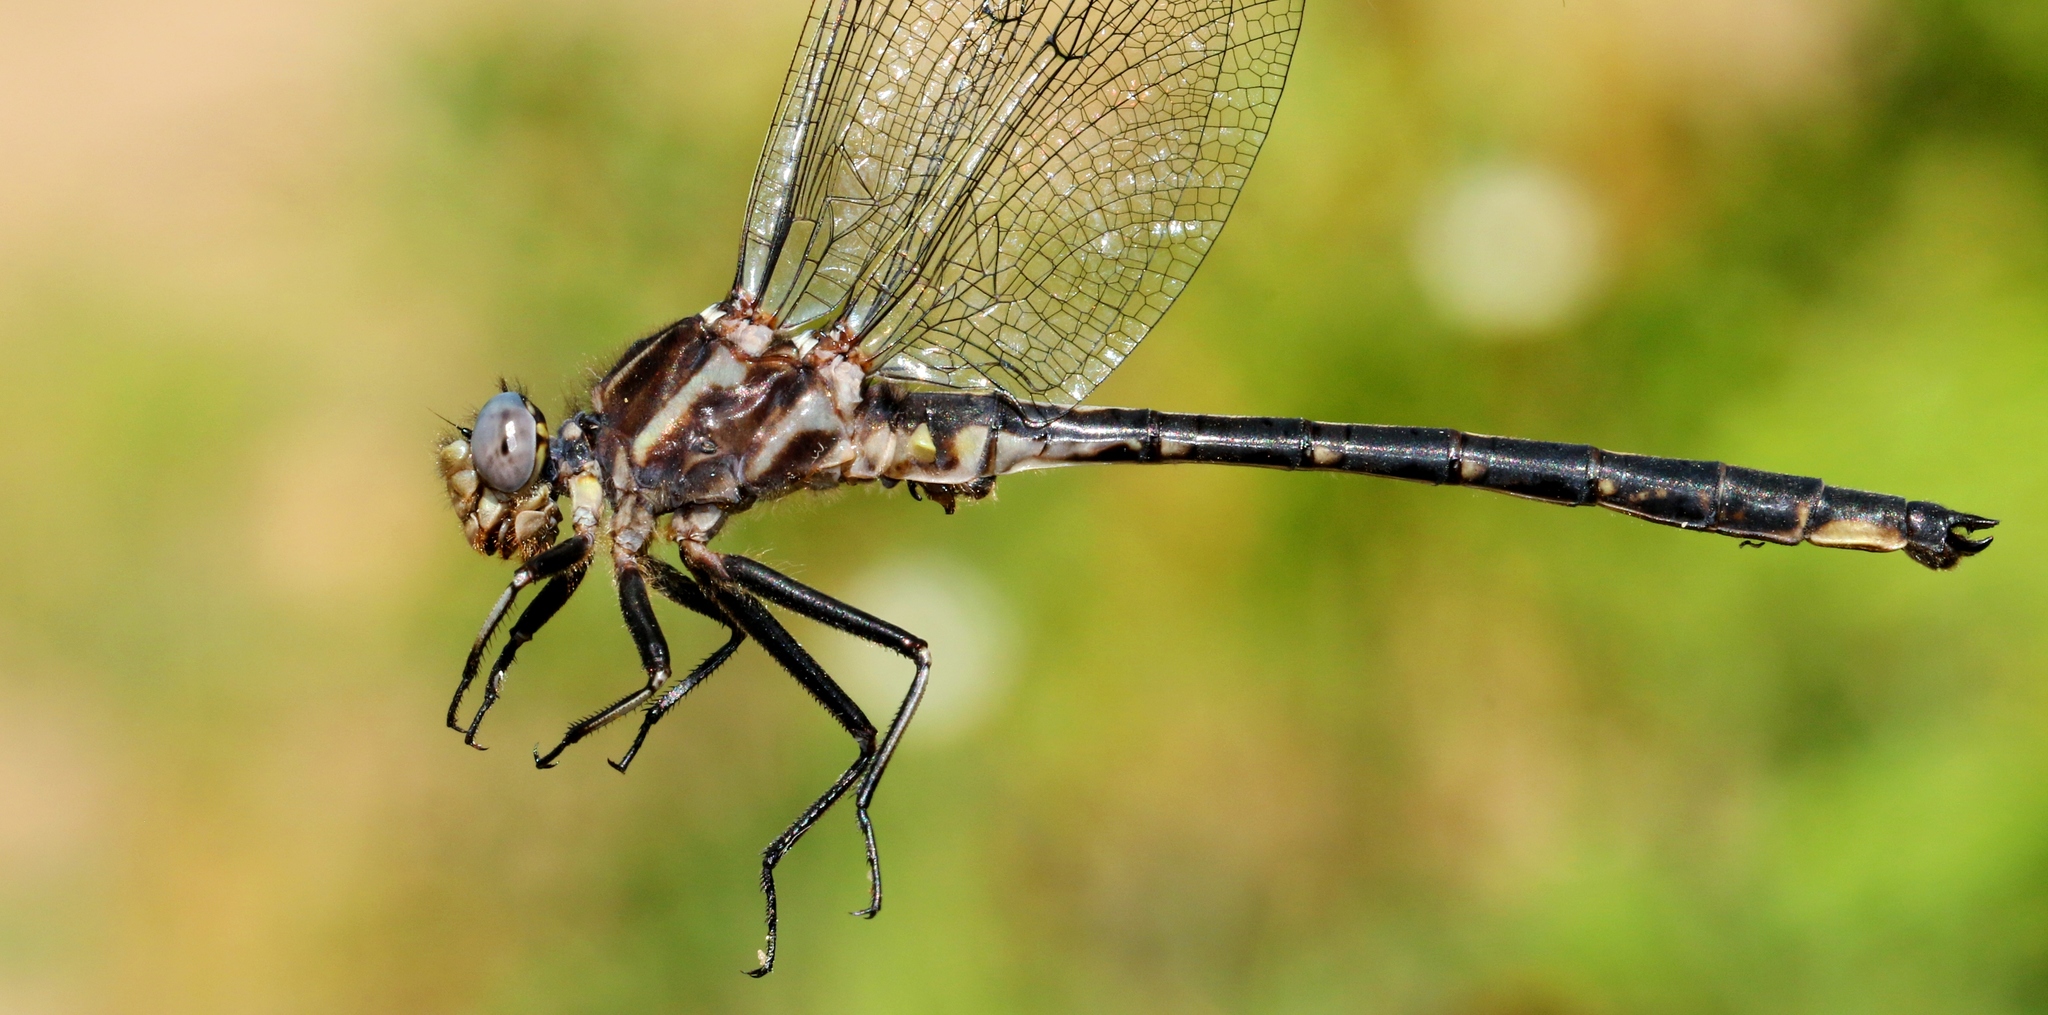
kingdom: Animalia
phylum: Arthropoda
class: Insecta
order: Odonata
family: Gomphidae
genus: Phanogomphus
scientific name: Phanogomphus spicatus
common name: Dusky clubtail
